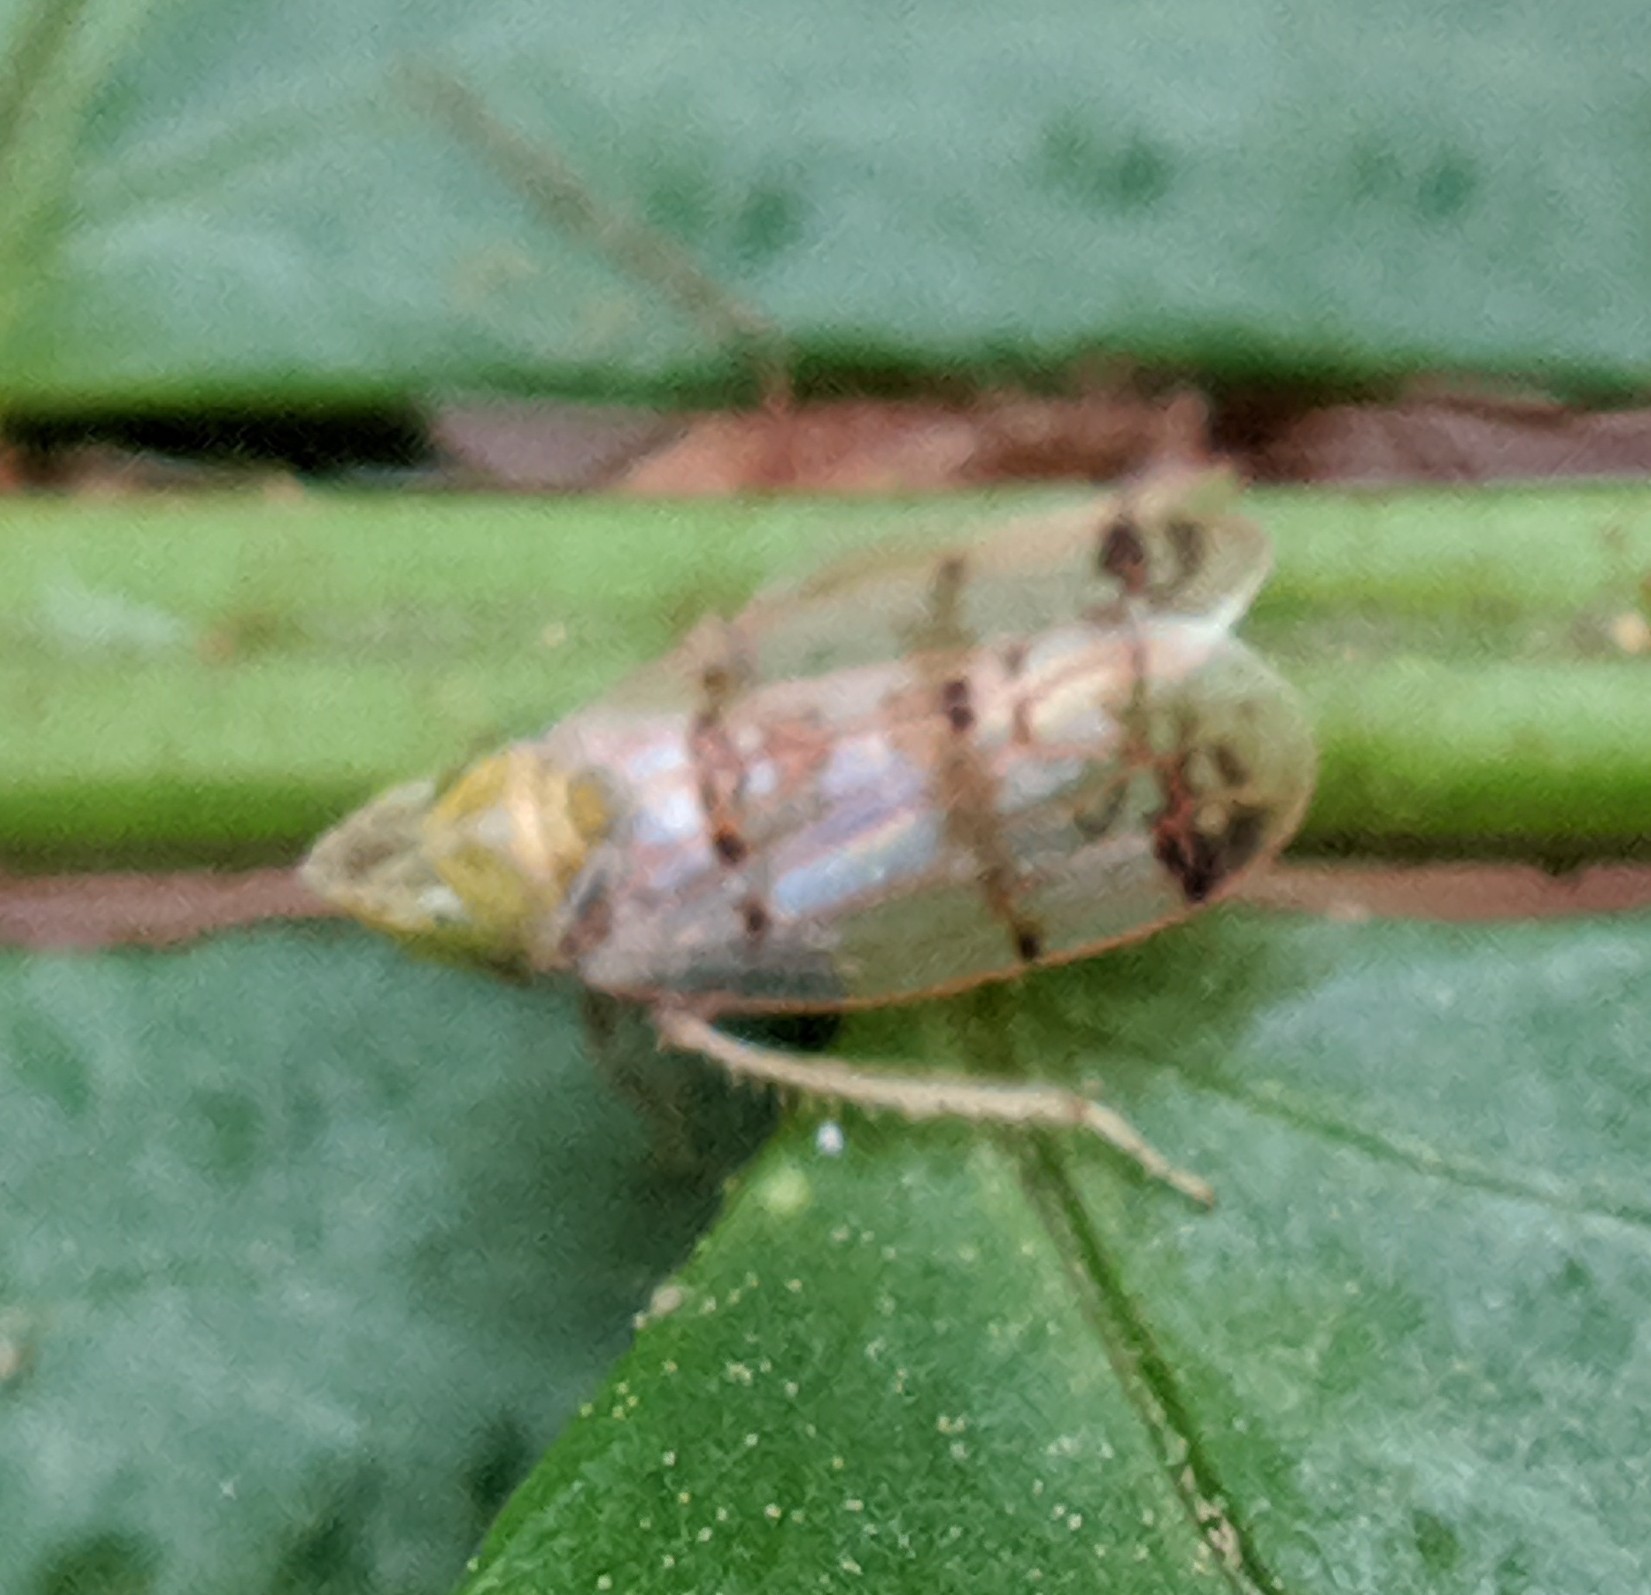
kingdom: Animalia
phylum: Arthropoda
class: Insecta
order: Hemiptera
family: Cicadellidae
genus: Japananus
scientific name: Japananus hyalinus
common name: The japanese maple leafhopper
